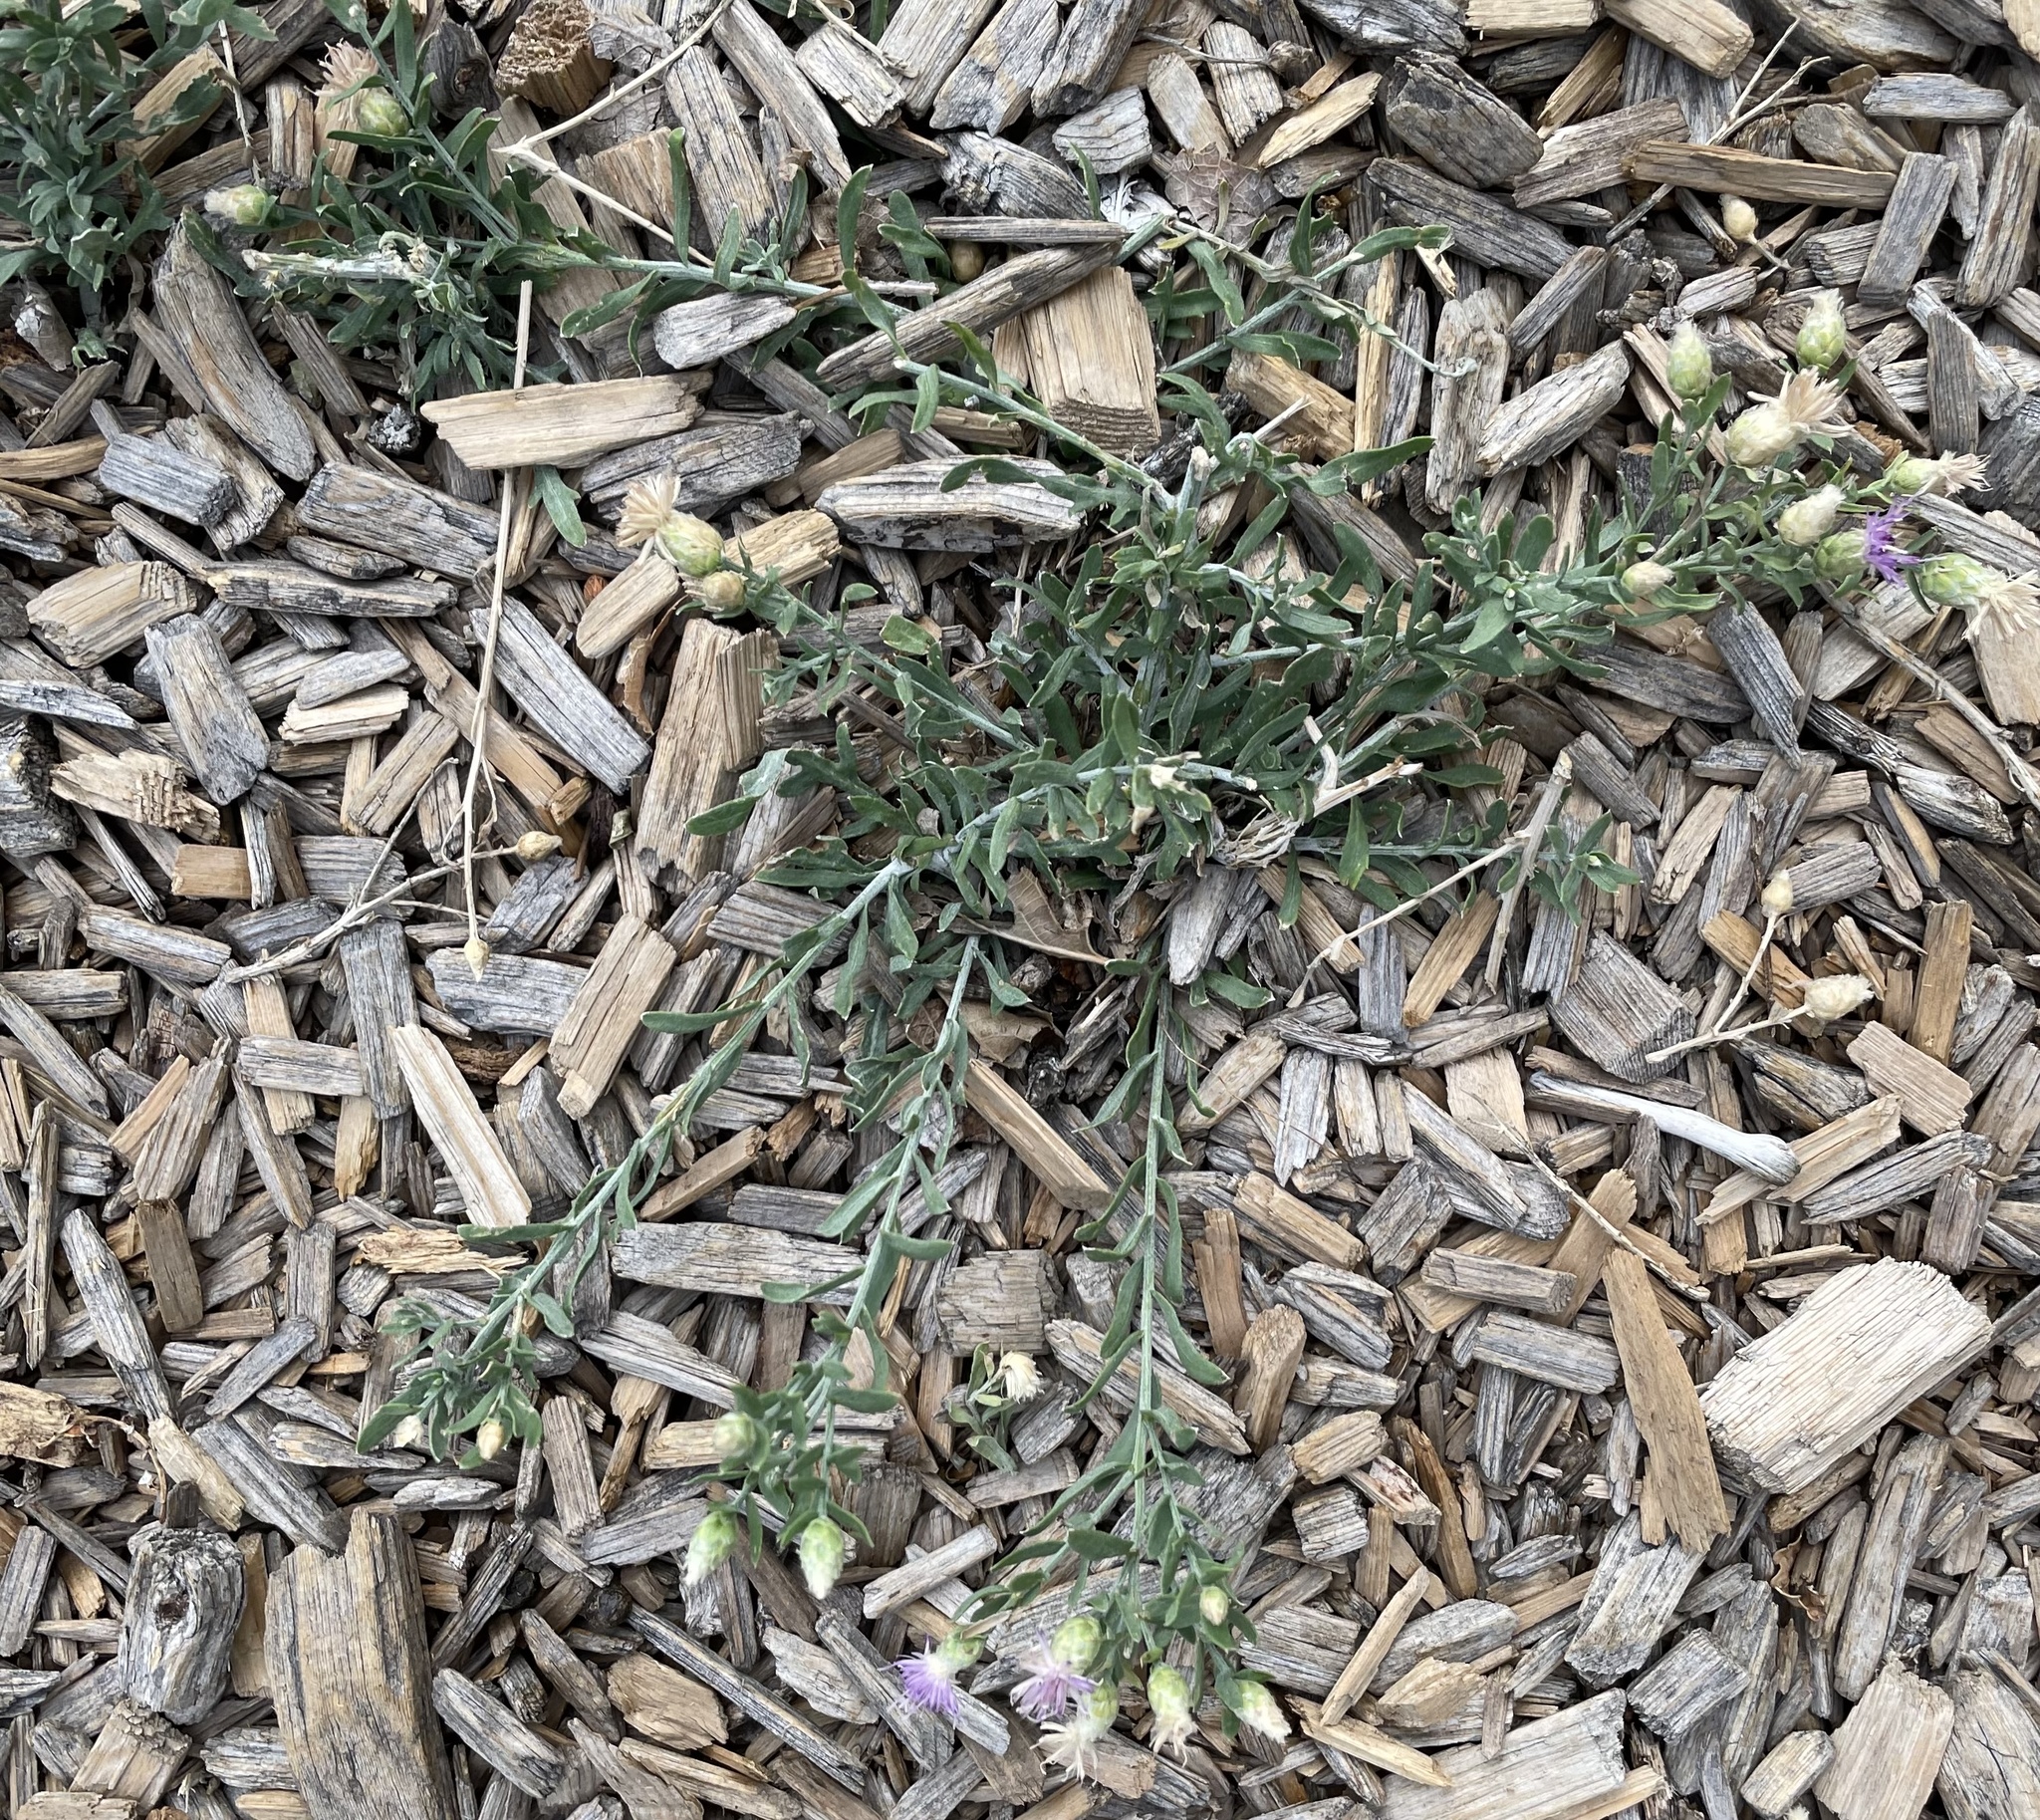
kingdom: Plantae
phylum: Tracheophyta
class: Magnoliopsida
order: Asterales
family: Asteraceae
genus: Leuzea
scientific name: Leuzea repens
